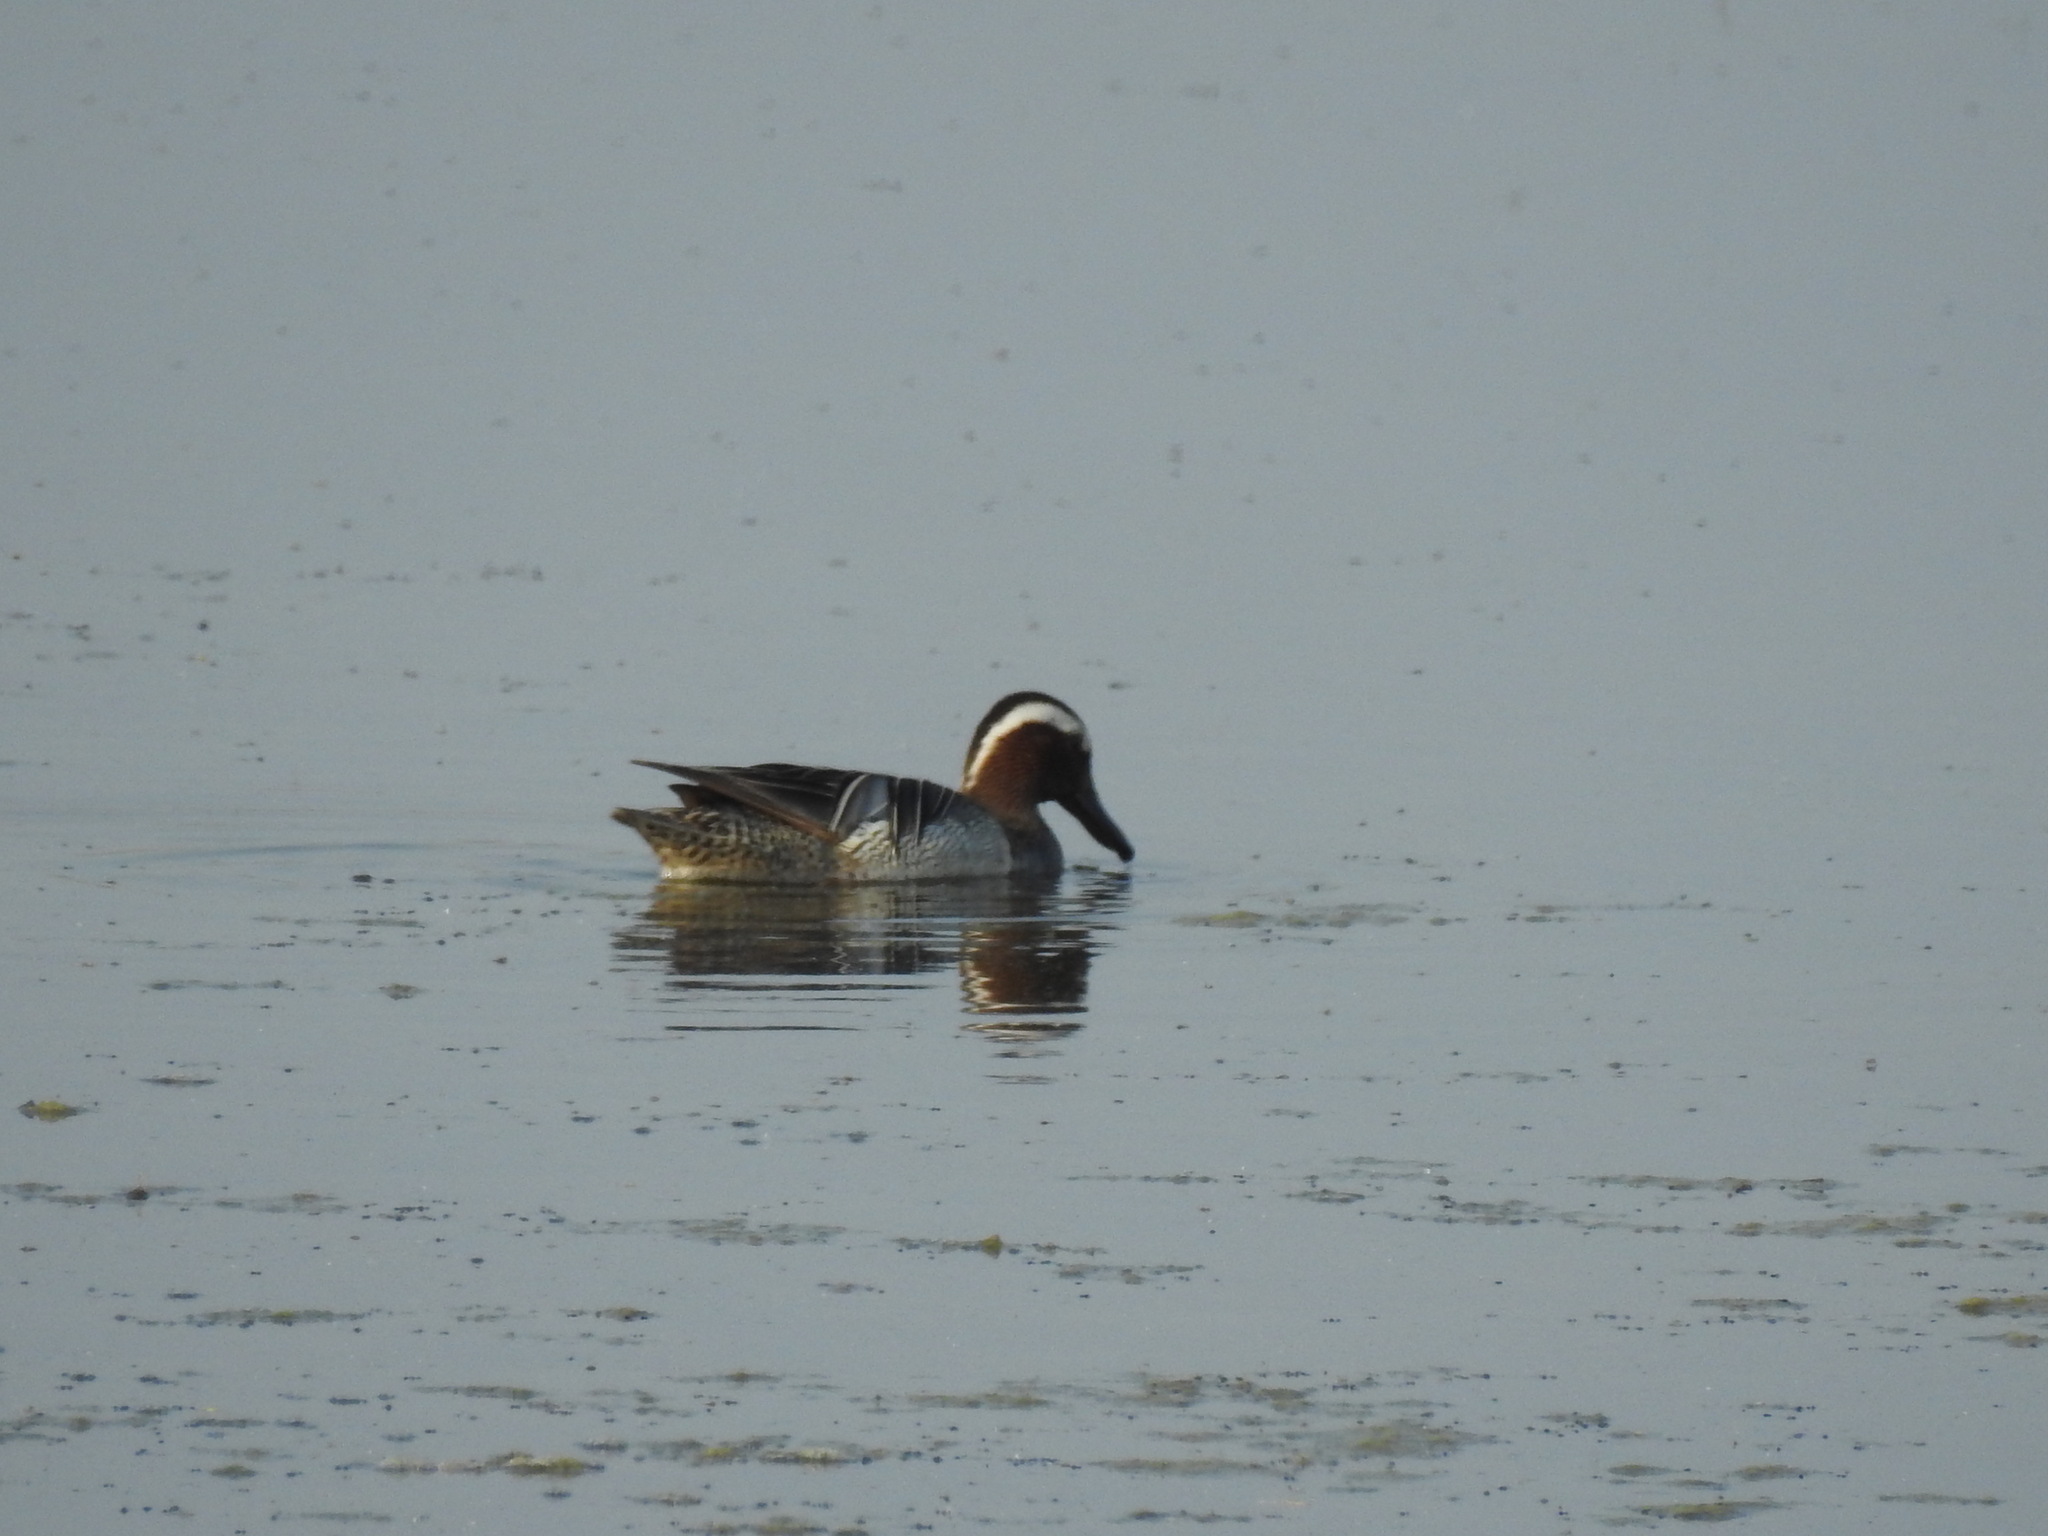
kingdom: Animalia
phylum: Chordata
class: Aves
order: Anseriformes
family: Anatidae
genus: Spatula
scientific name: Spatula querquedula
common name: Garganey
